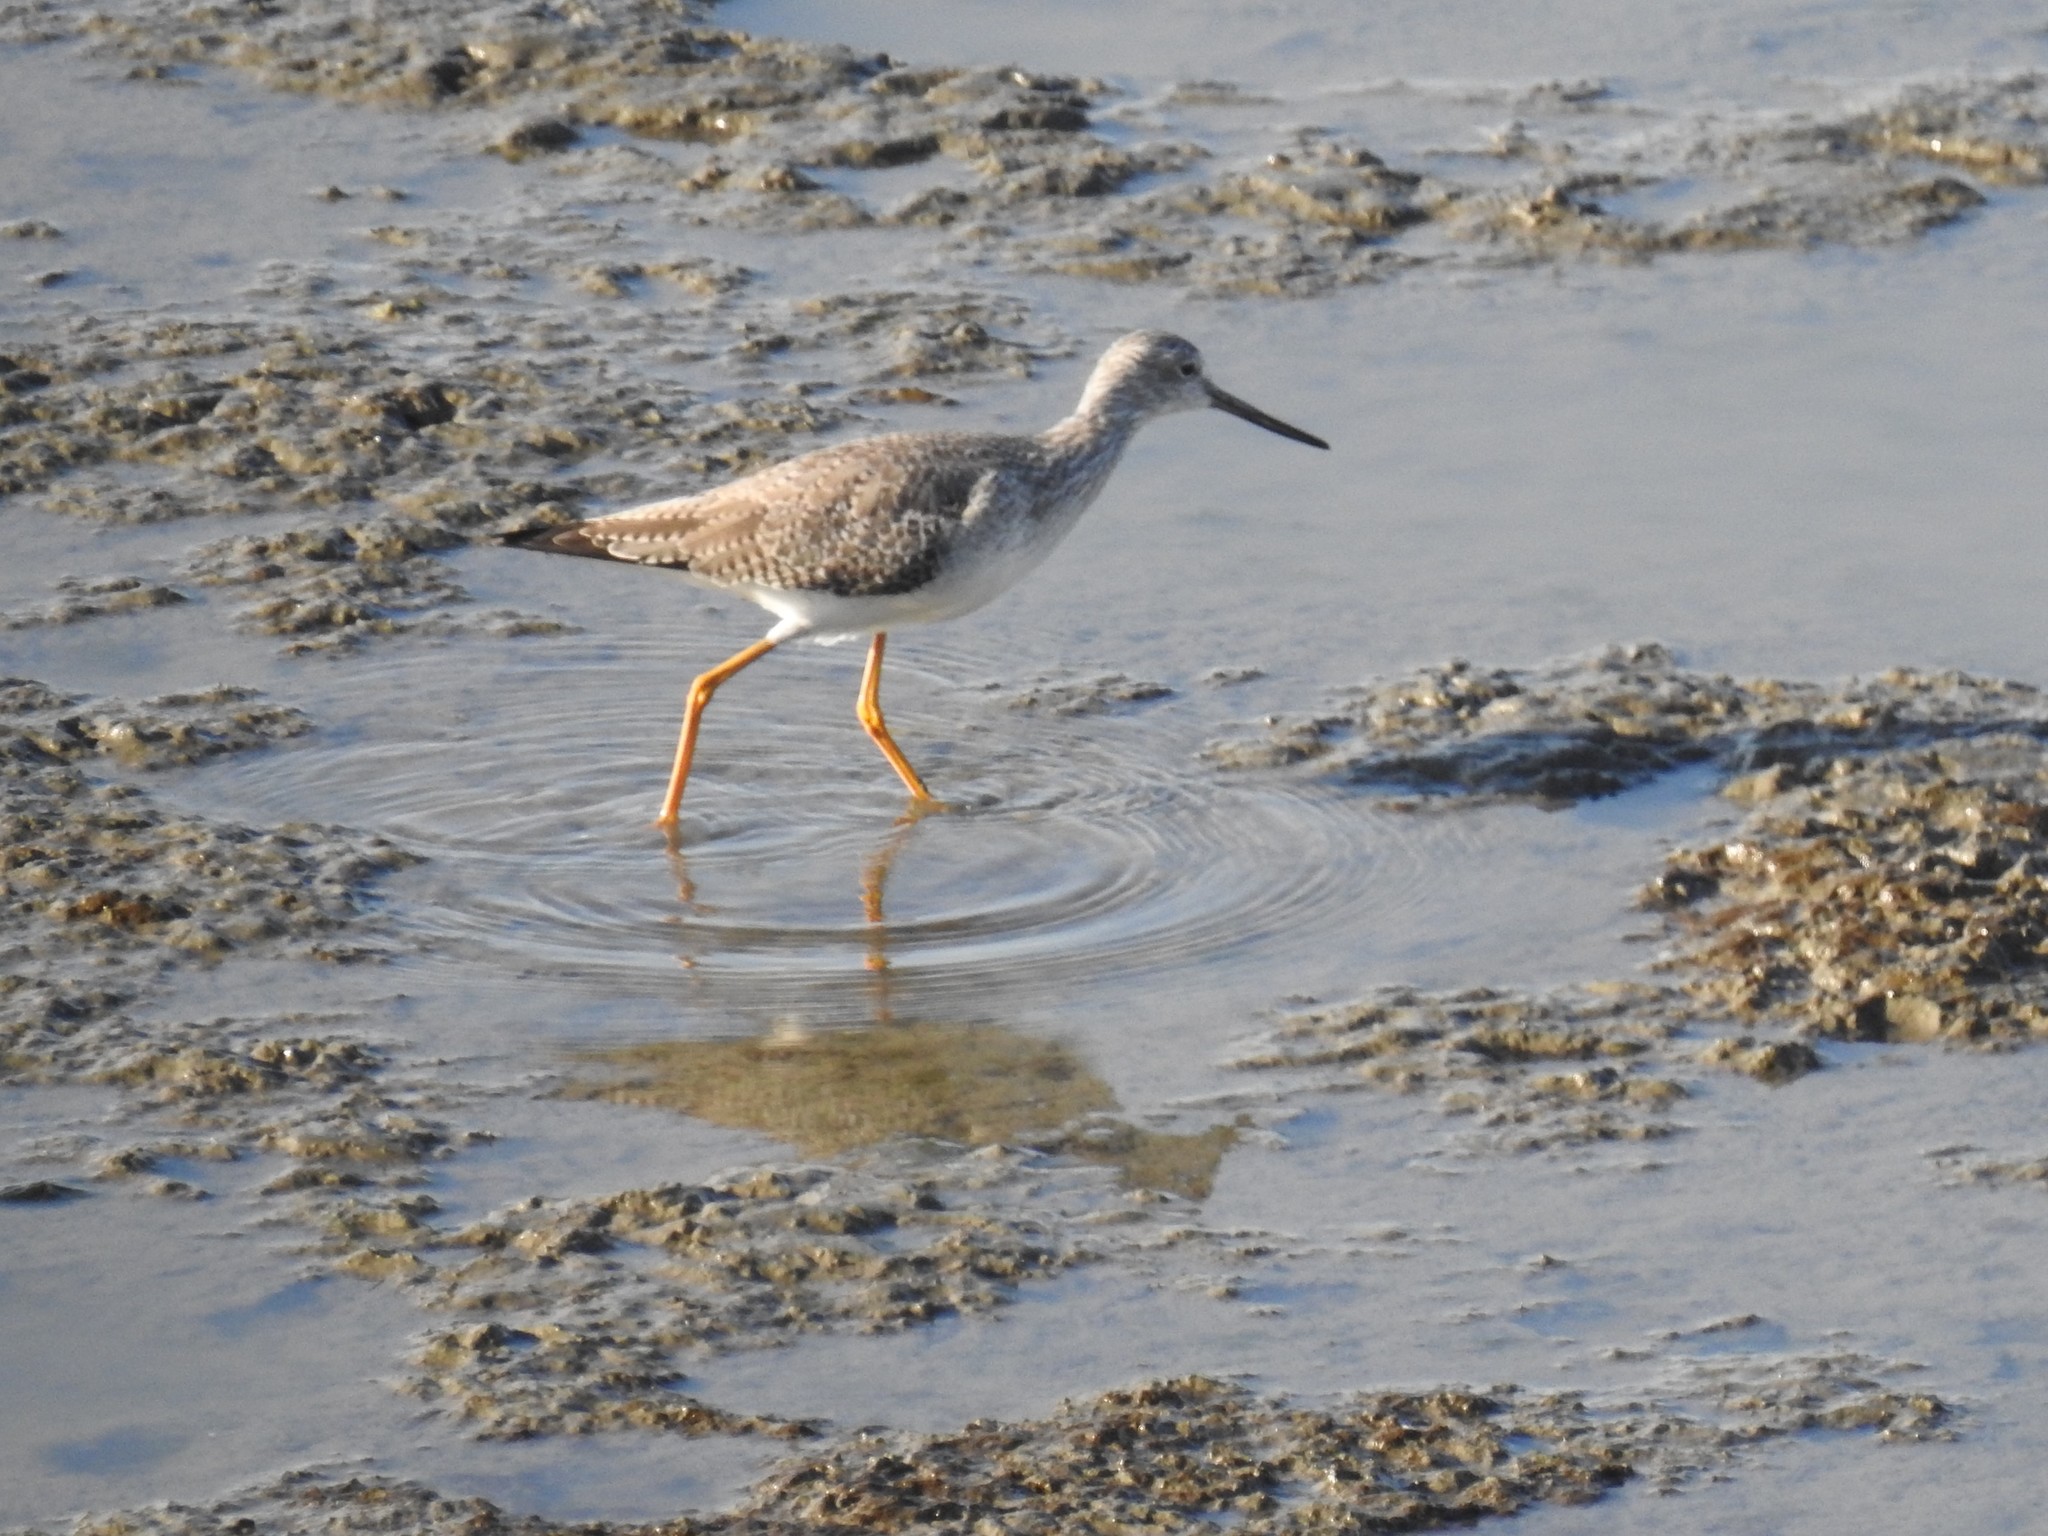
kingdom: Animalia
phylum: Chordata
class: Aves
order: Charadriiformes
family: Scolopacidae
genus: Tringa
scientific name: Tringa melanoleuca
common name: Greater yellowlegs
